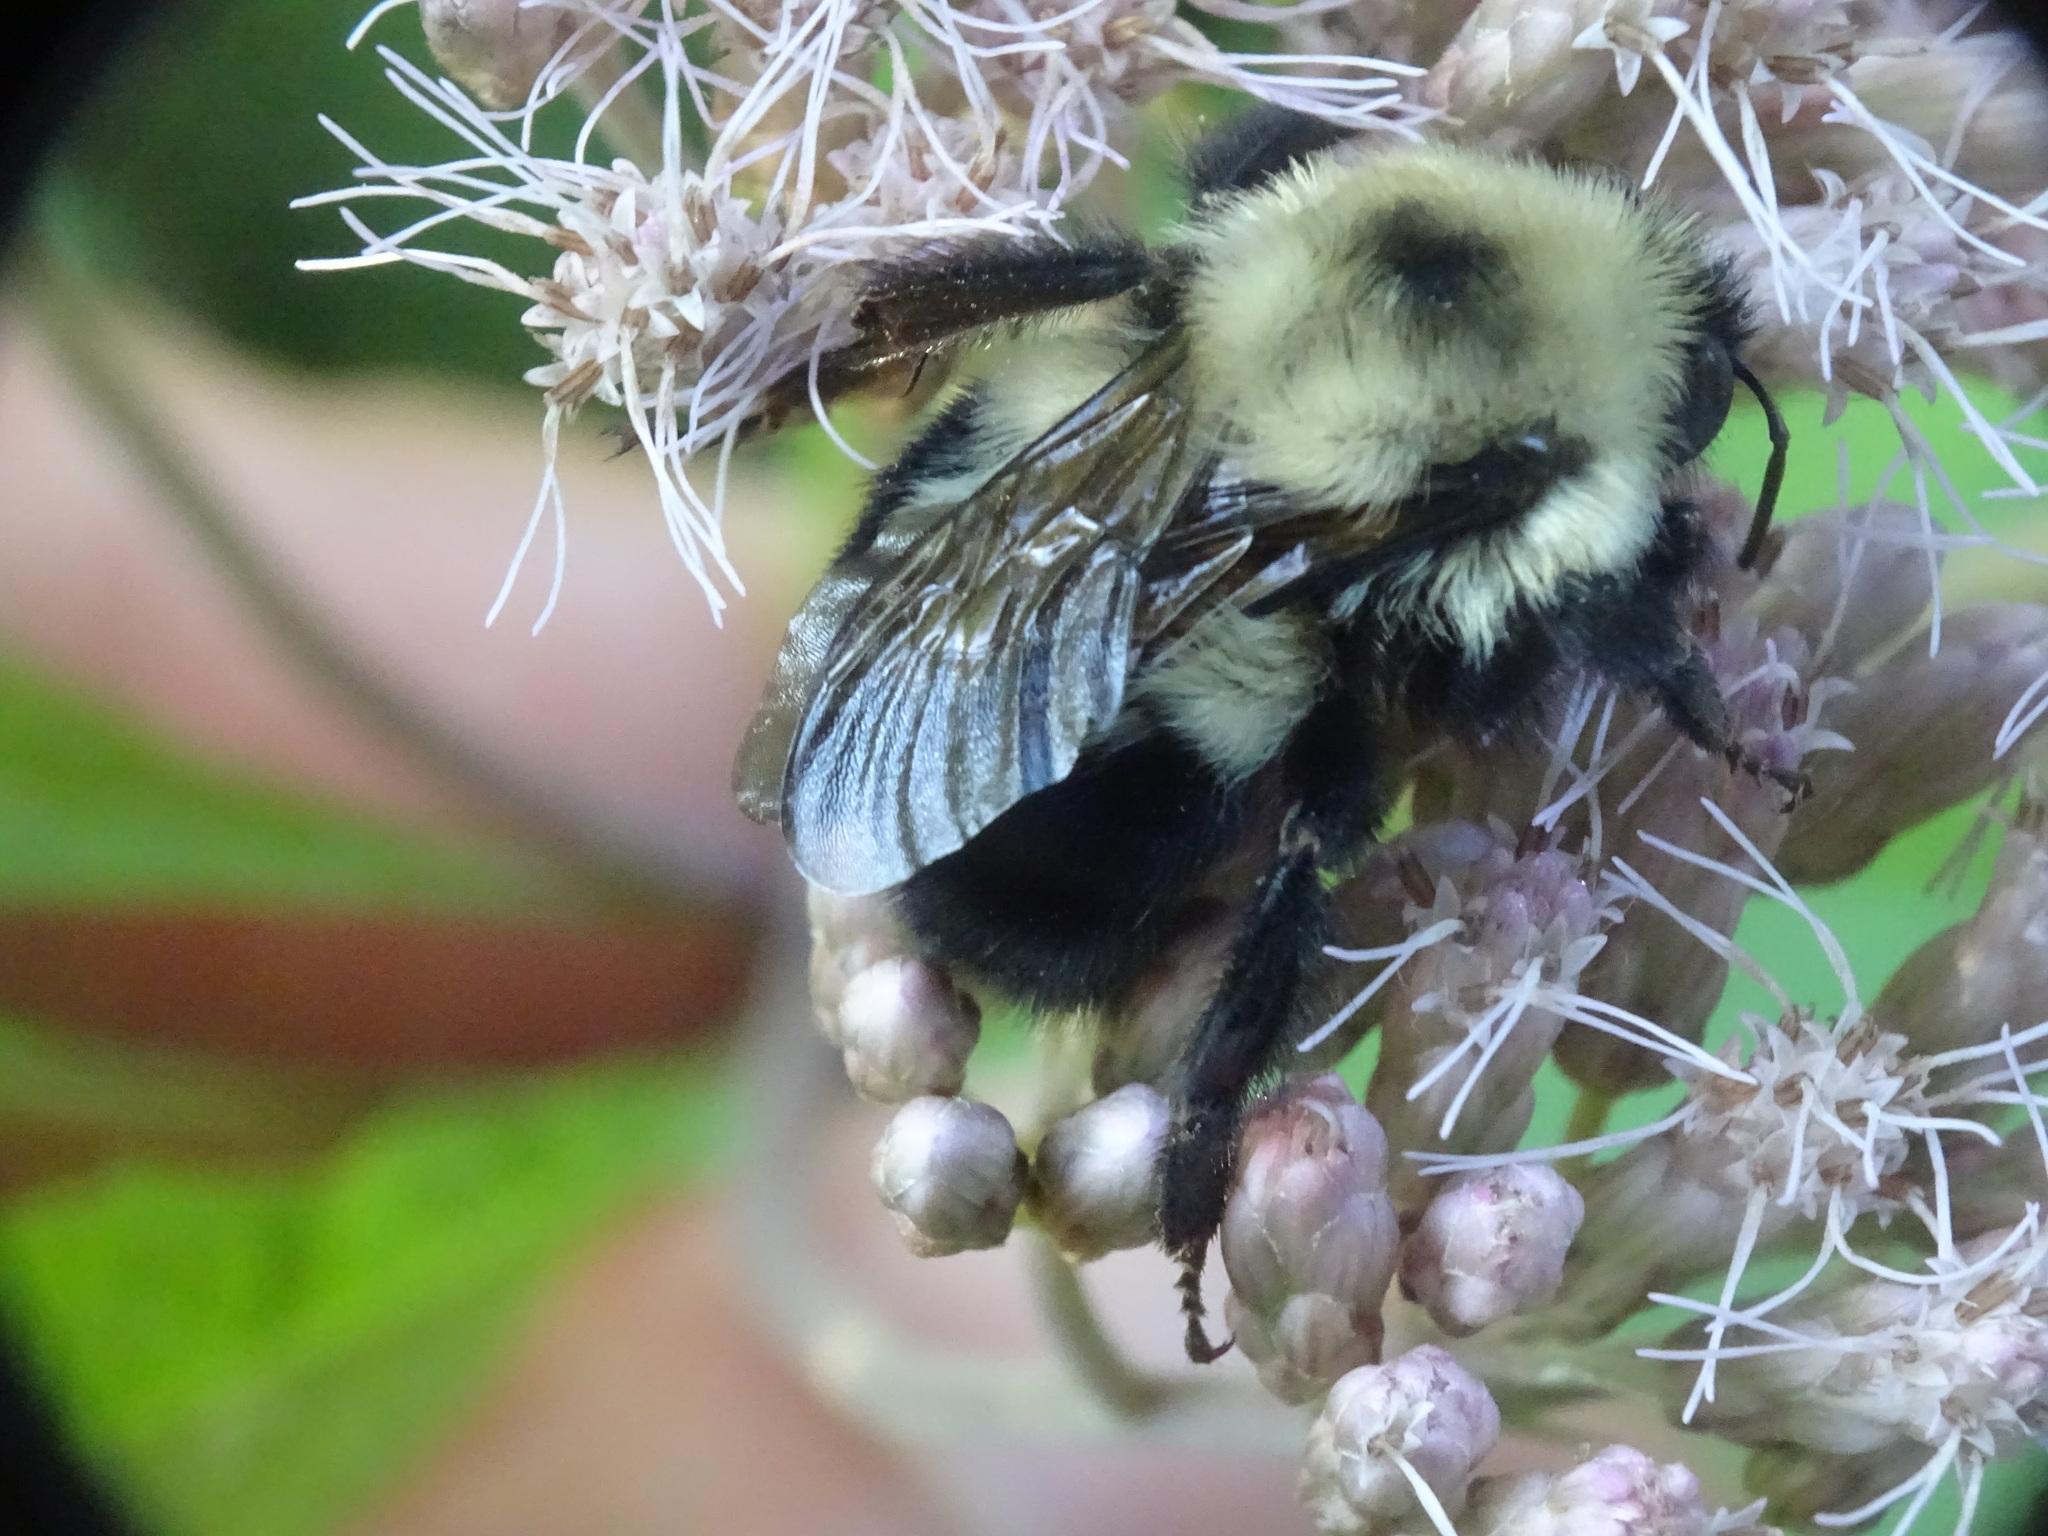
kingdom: Animalia
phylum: Arthropoda
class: Insecta
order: Hymenoptera
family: Apidae
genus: Bombus
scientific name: Bombus bimaculatus
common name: Two-spotted bumble bee
